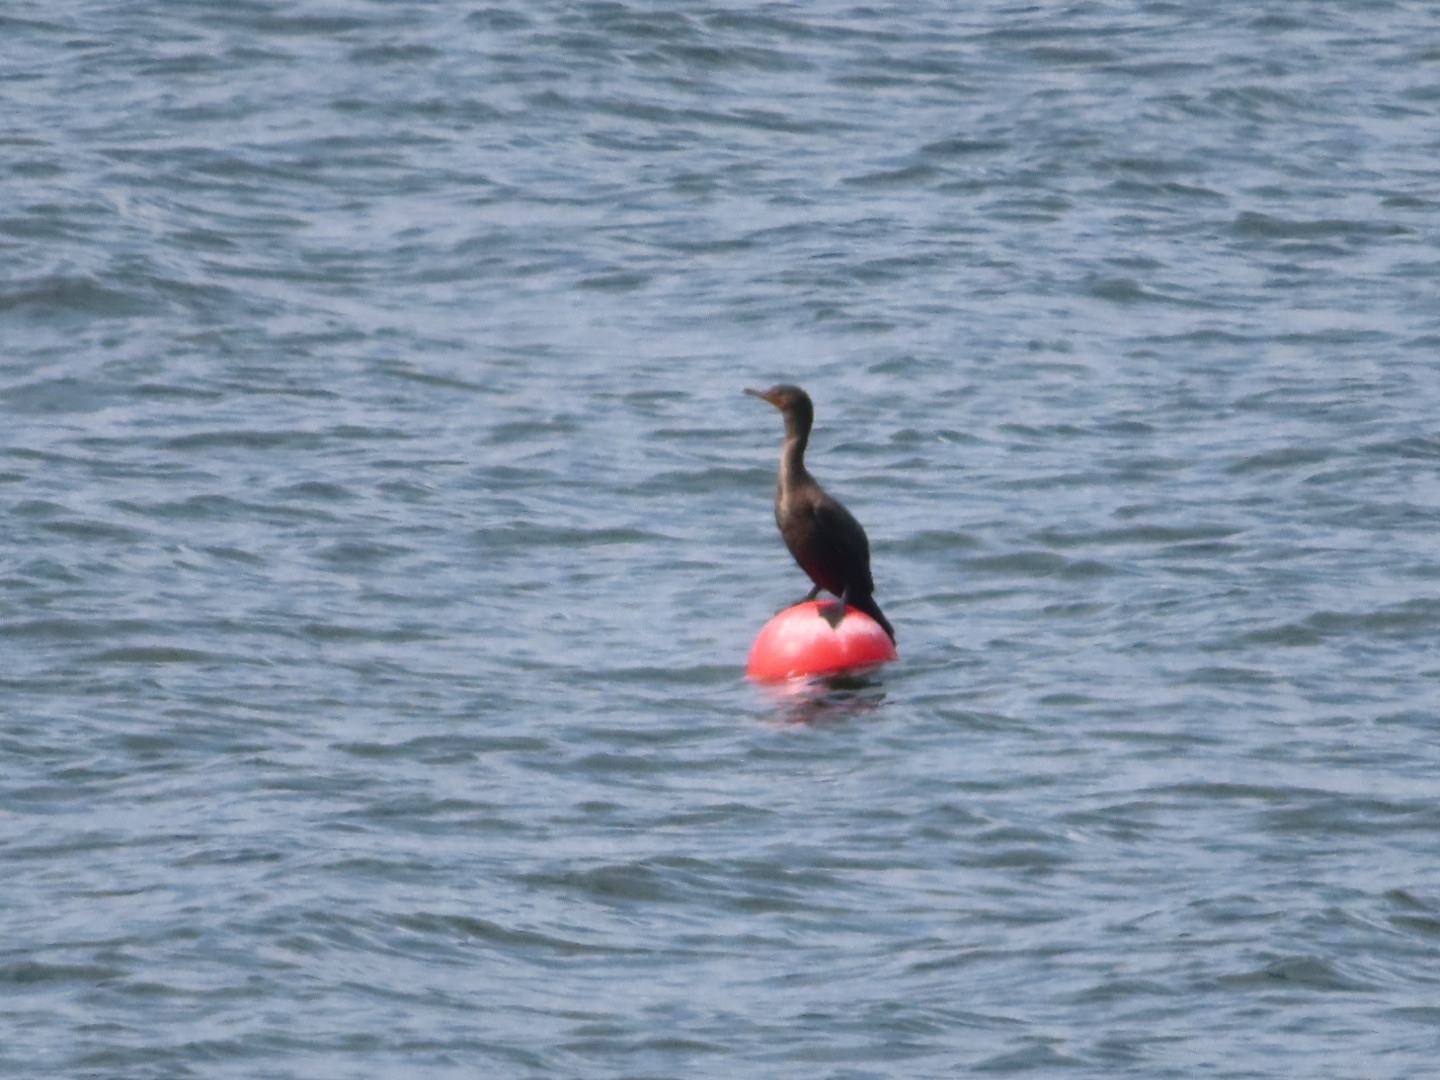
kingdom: Animalia
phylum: Chordata
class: Aves
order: Suliformes
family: Phalacrocoracidae
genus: Phalacrocorax
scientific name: Phalacrocorax auritus
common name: Double-crested cormorant
